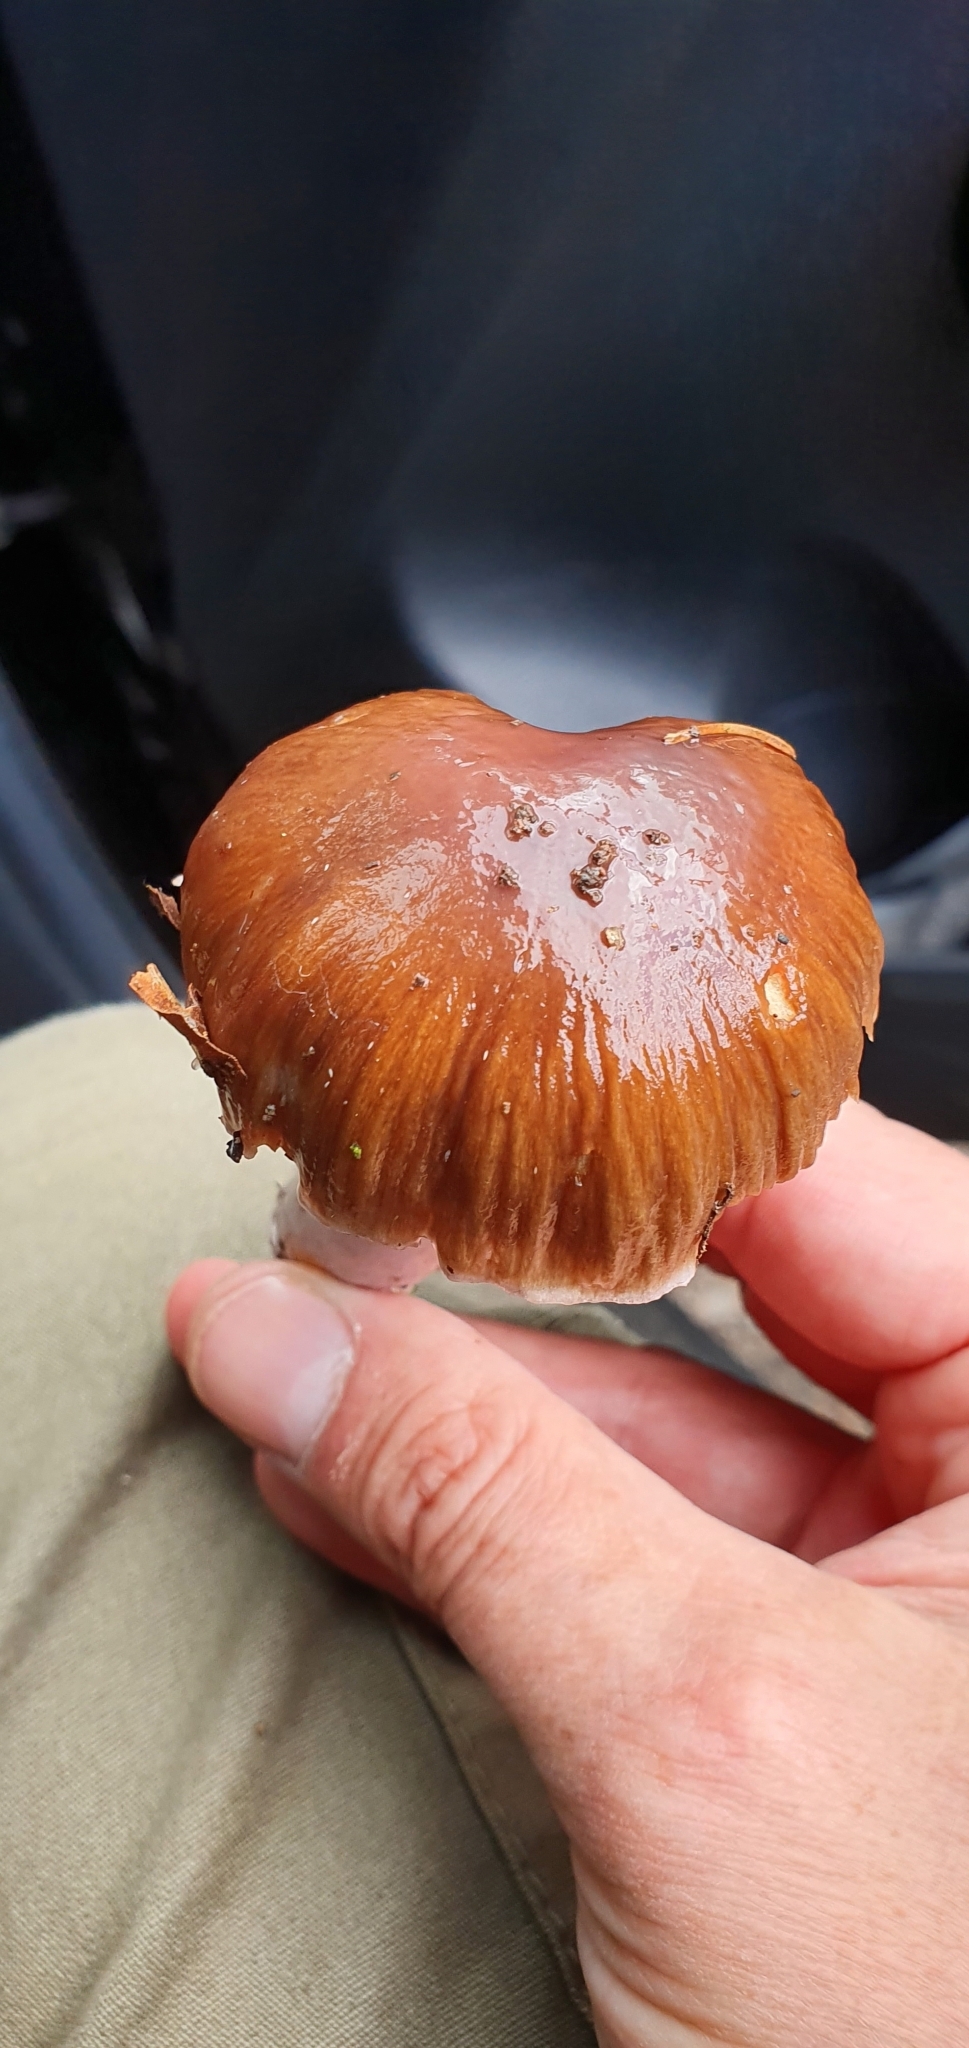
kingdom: Fungi
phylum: Basidiomycota
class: Agaricomycetes
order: Agaricales
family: Cortinariaceae
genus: Cortinarius
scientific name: Cortinarius livido-ochraceus
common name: Wrinkled webcap
